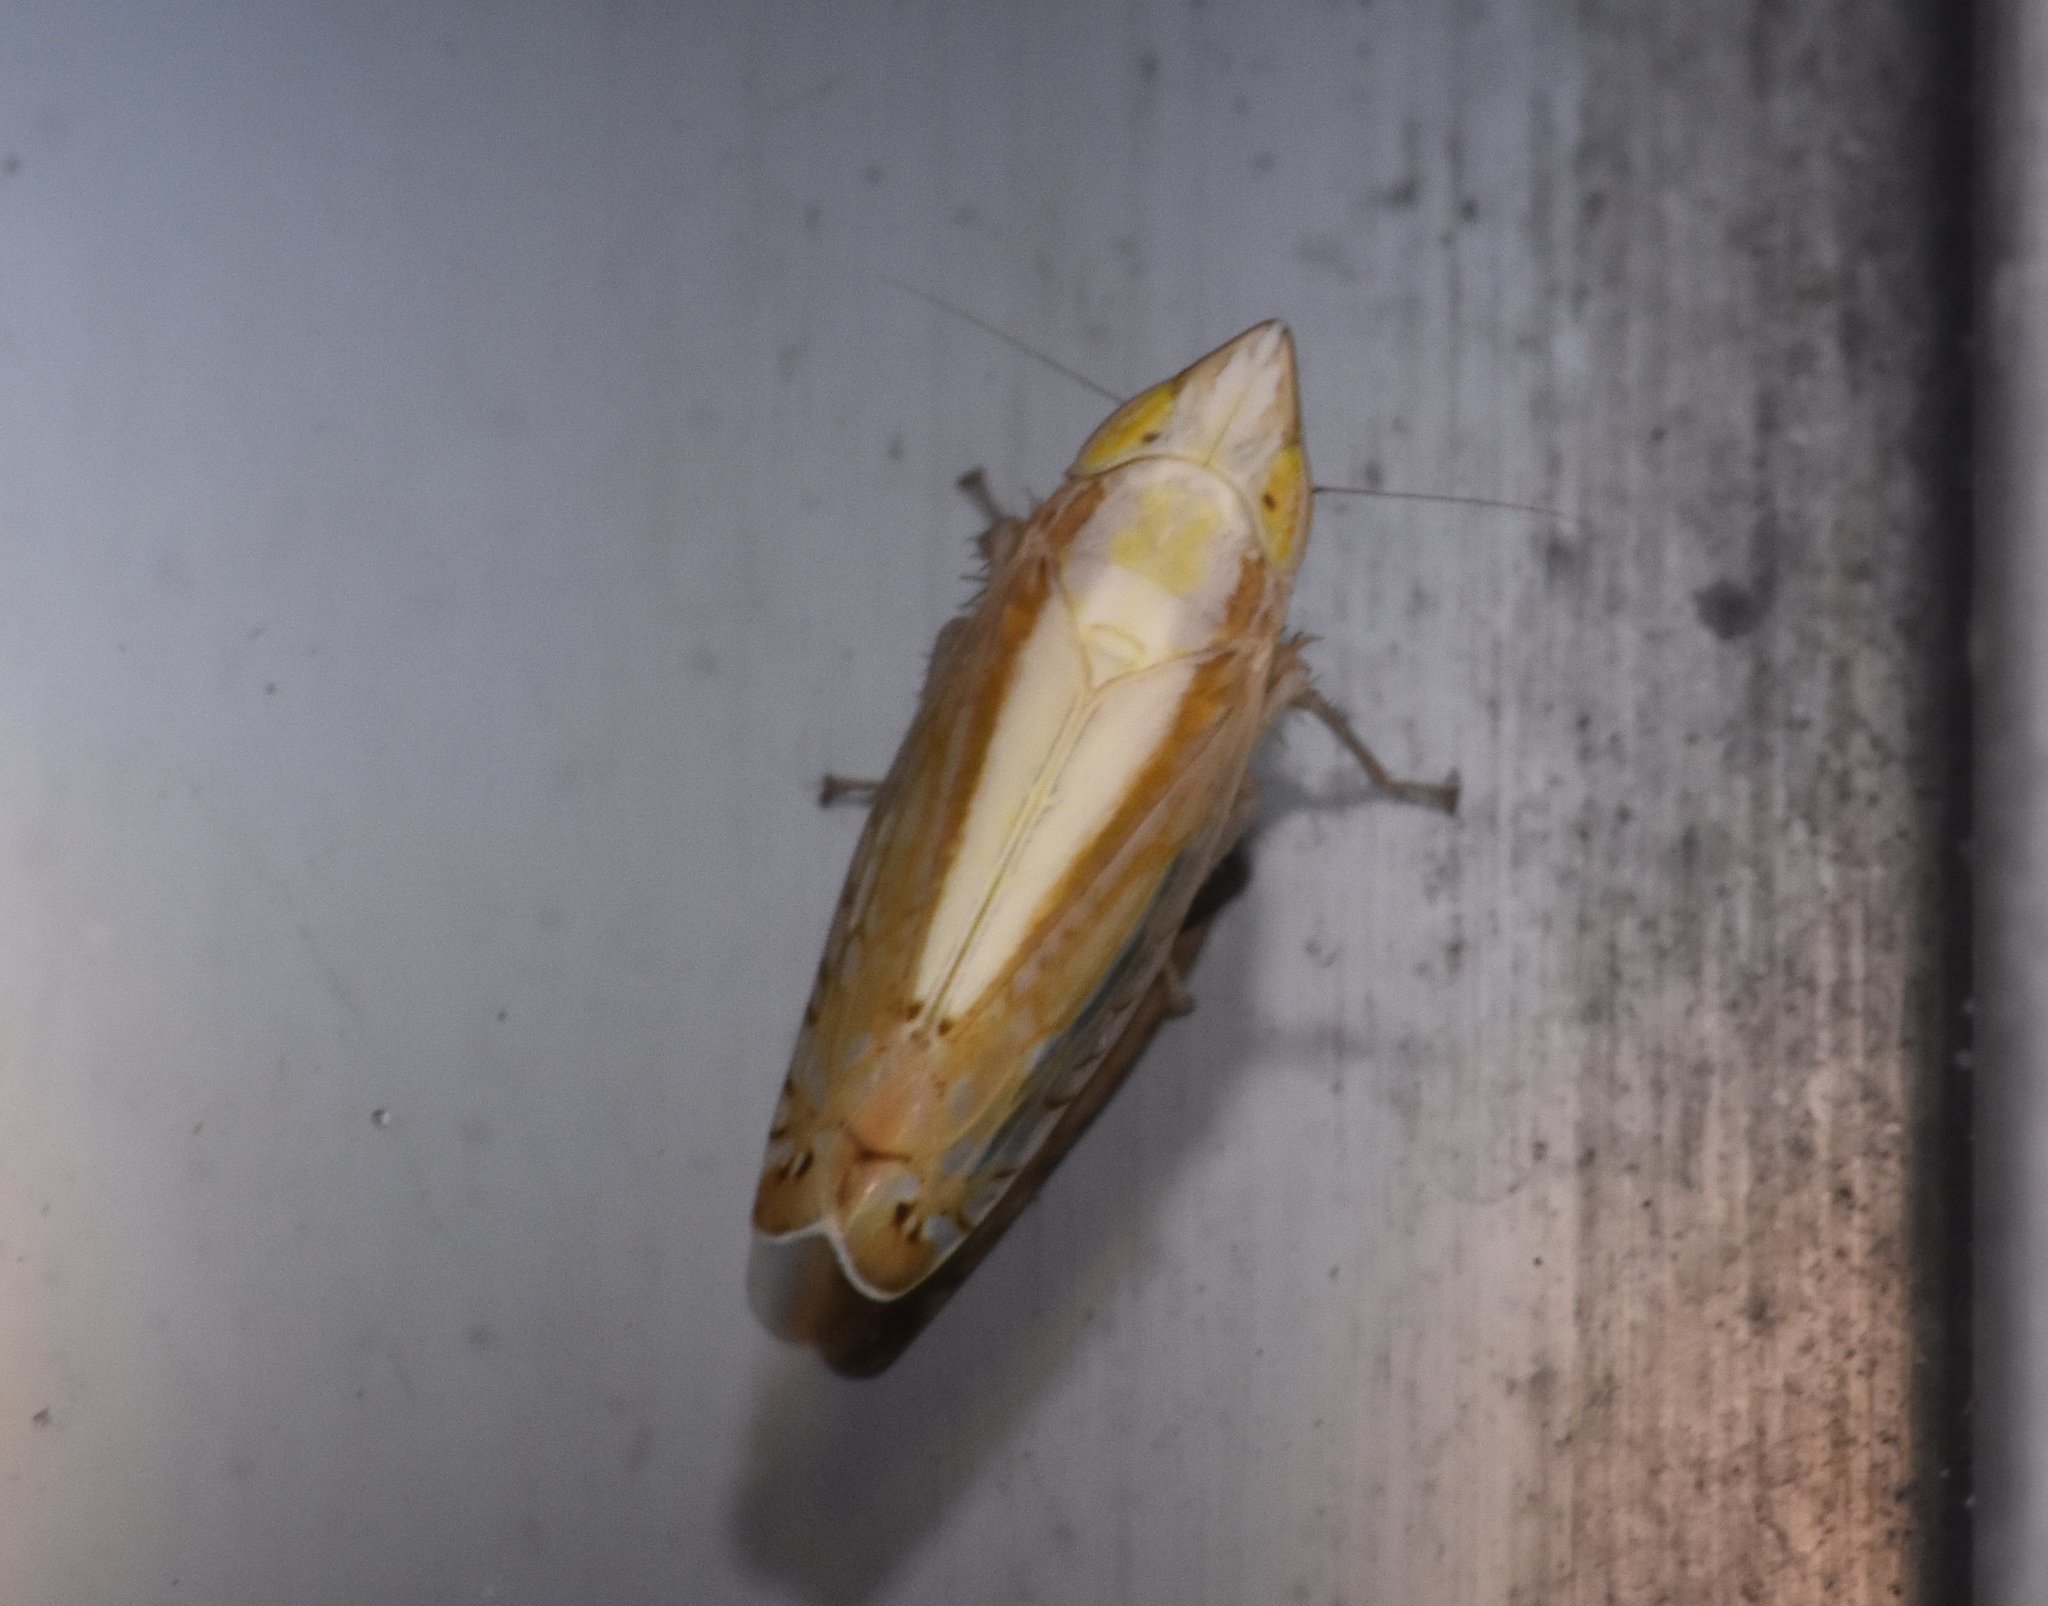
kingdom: Animalia
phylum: Arthropoda
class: Insecta
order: Hemiptera
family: Cicadellidae
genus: Scaphytopius
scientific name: Scaphytopius elegans
